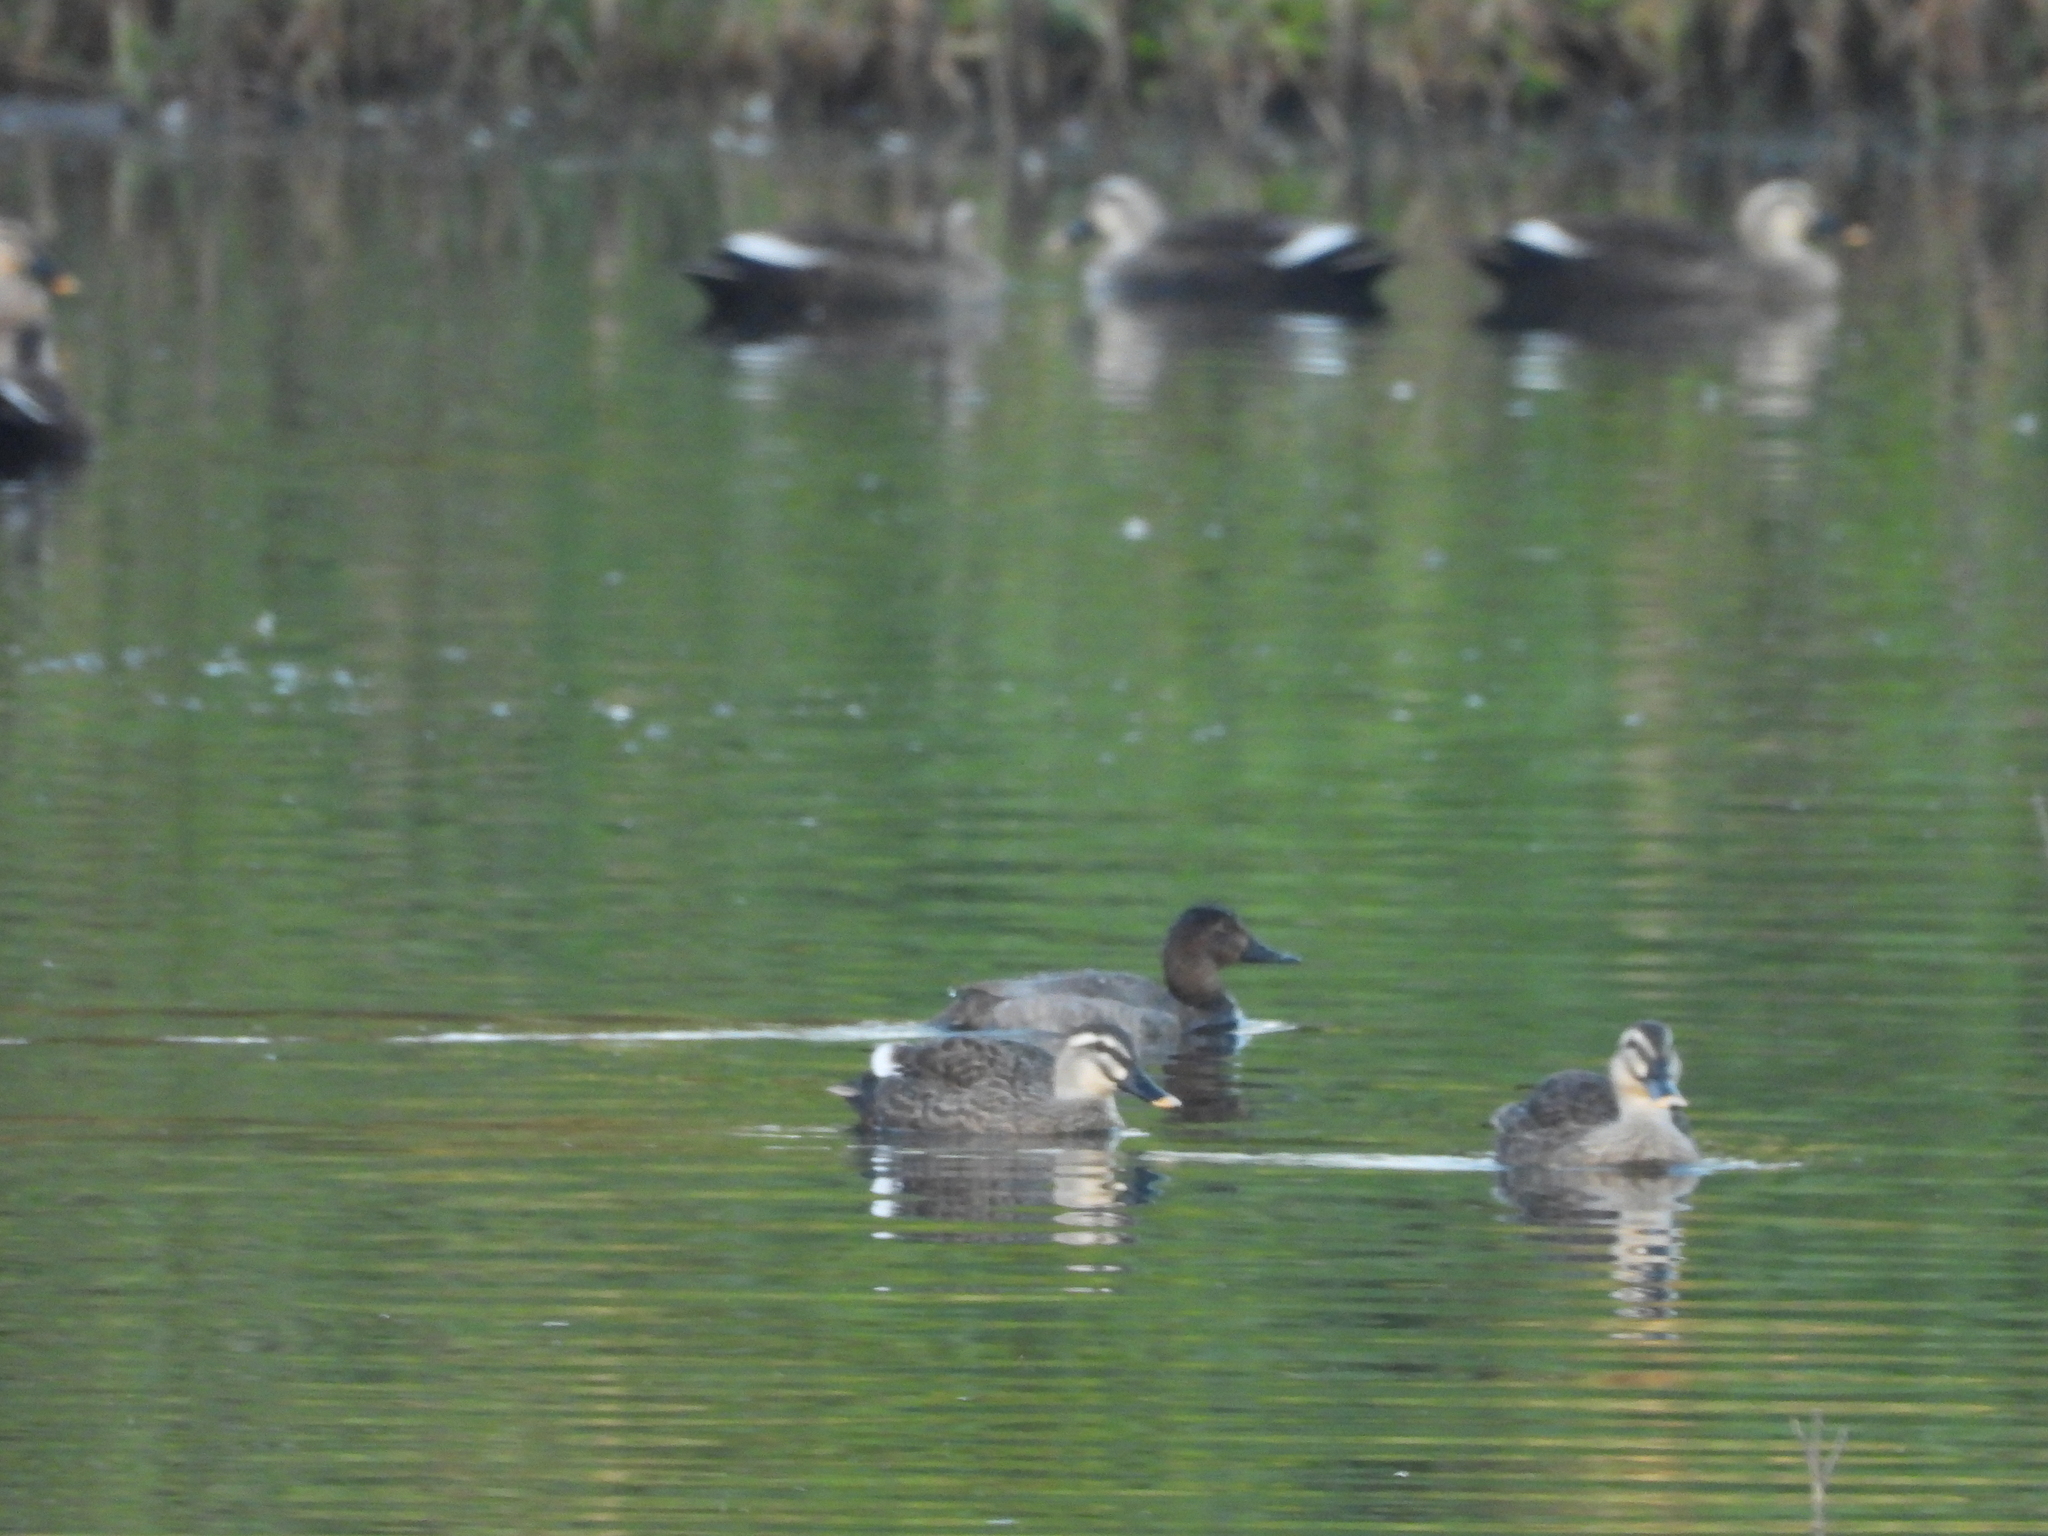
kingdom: Animalia
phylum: Chordata
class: Aves
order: Anseriformes
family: Anatidae
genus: Anas
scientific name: Anas zonorhyncha
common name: Eastern spot-billed duck
